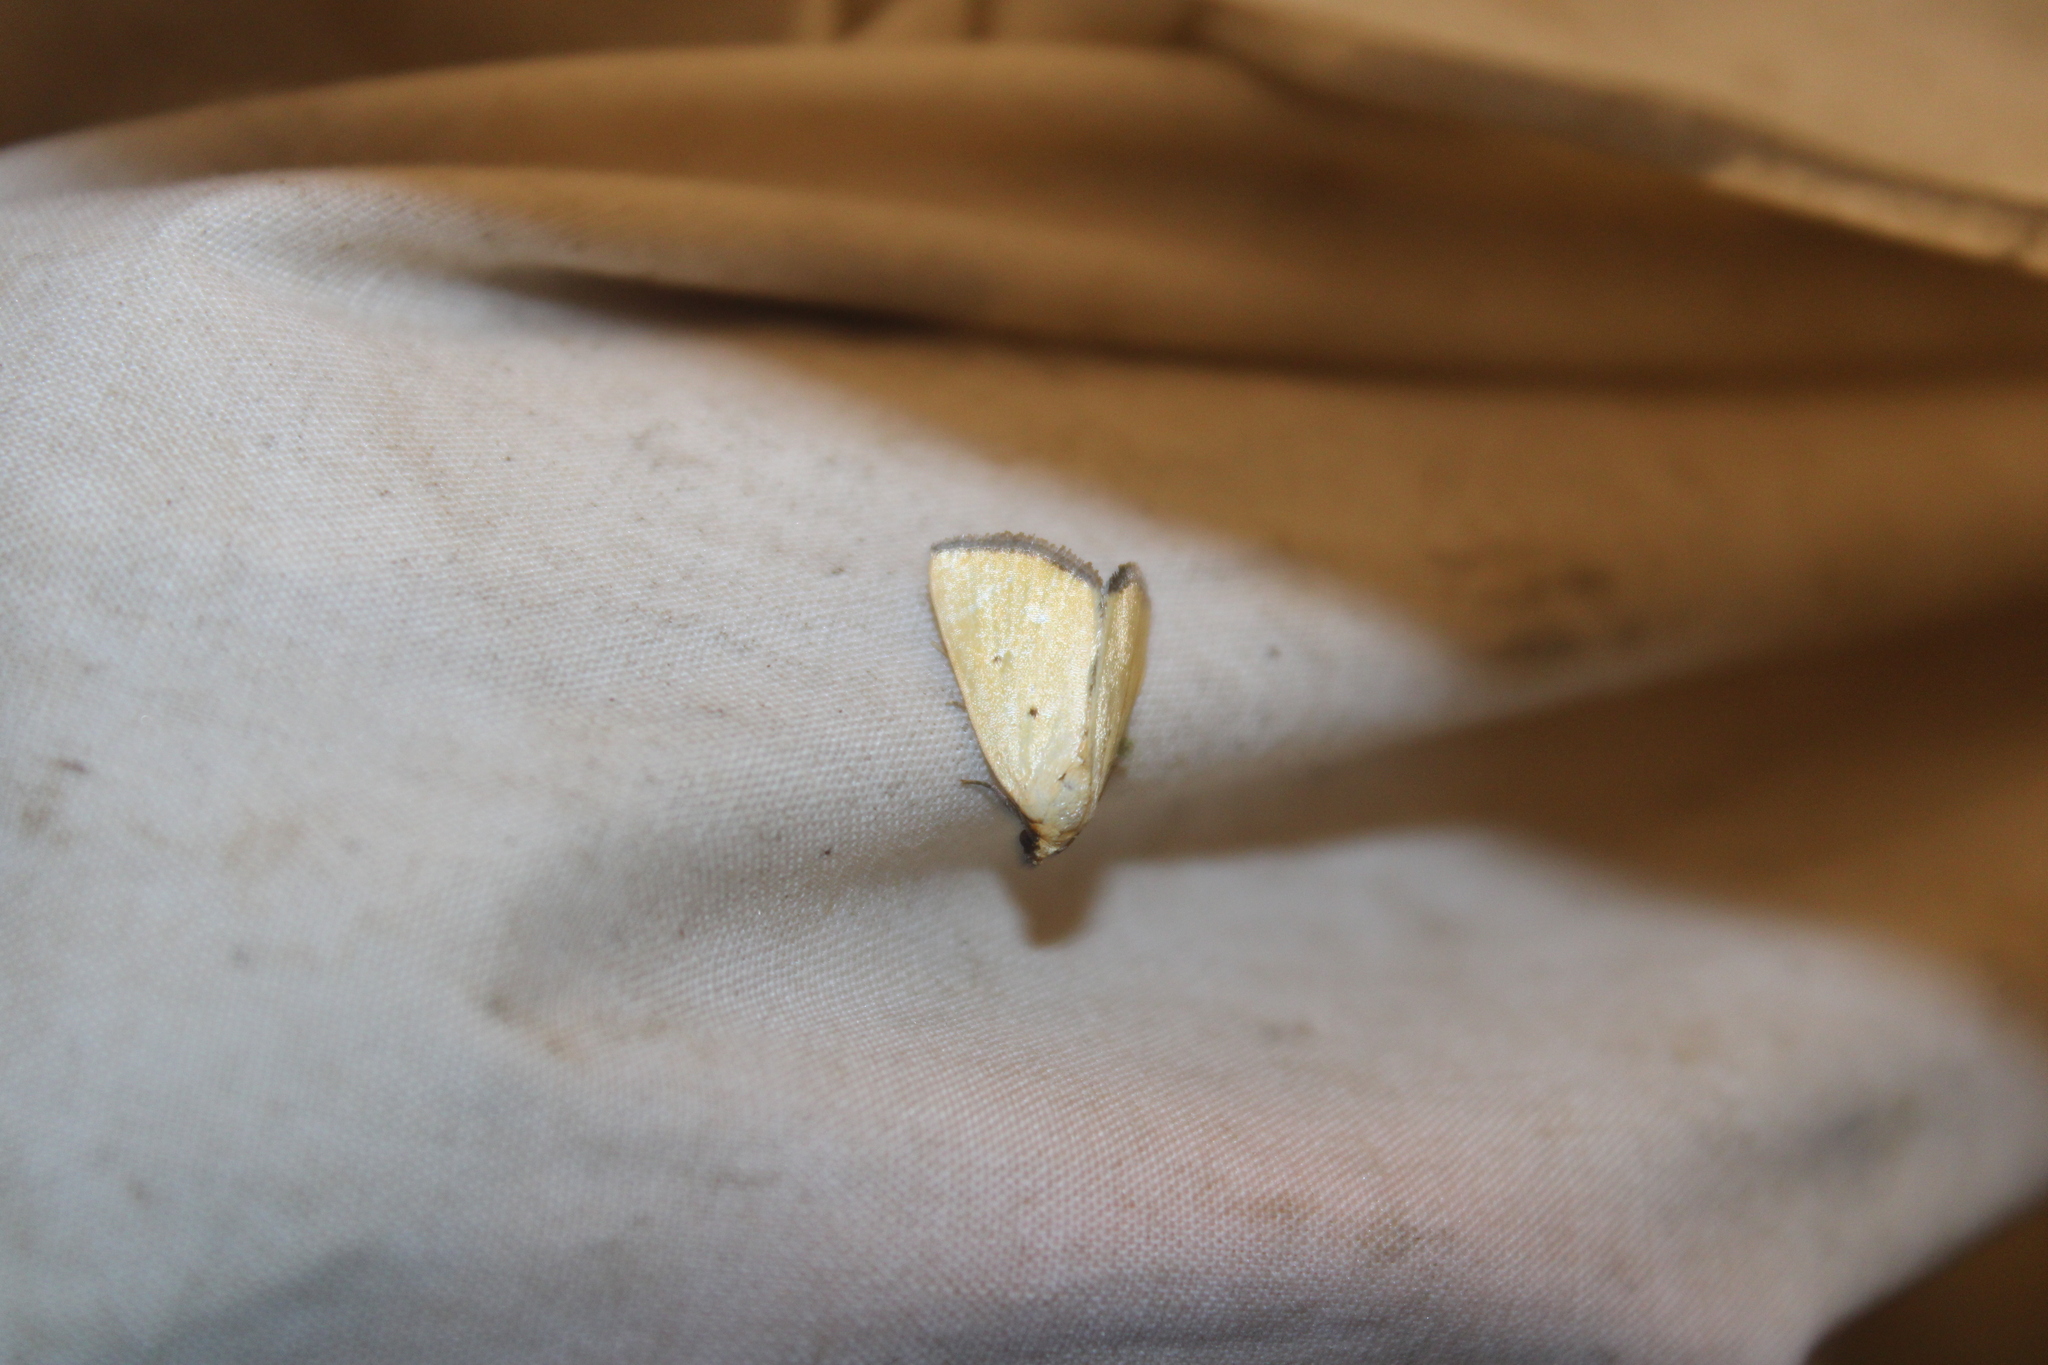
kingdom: Animalia
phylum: Arthropoda
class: Insecta
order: Lepidoptera
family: Noctuidae
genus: Marimatha
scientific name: Marimatha nigrofimbria
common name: Black-bordered lemon moth
